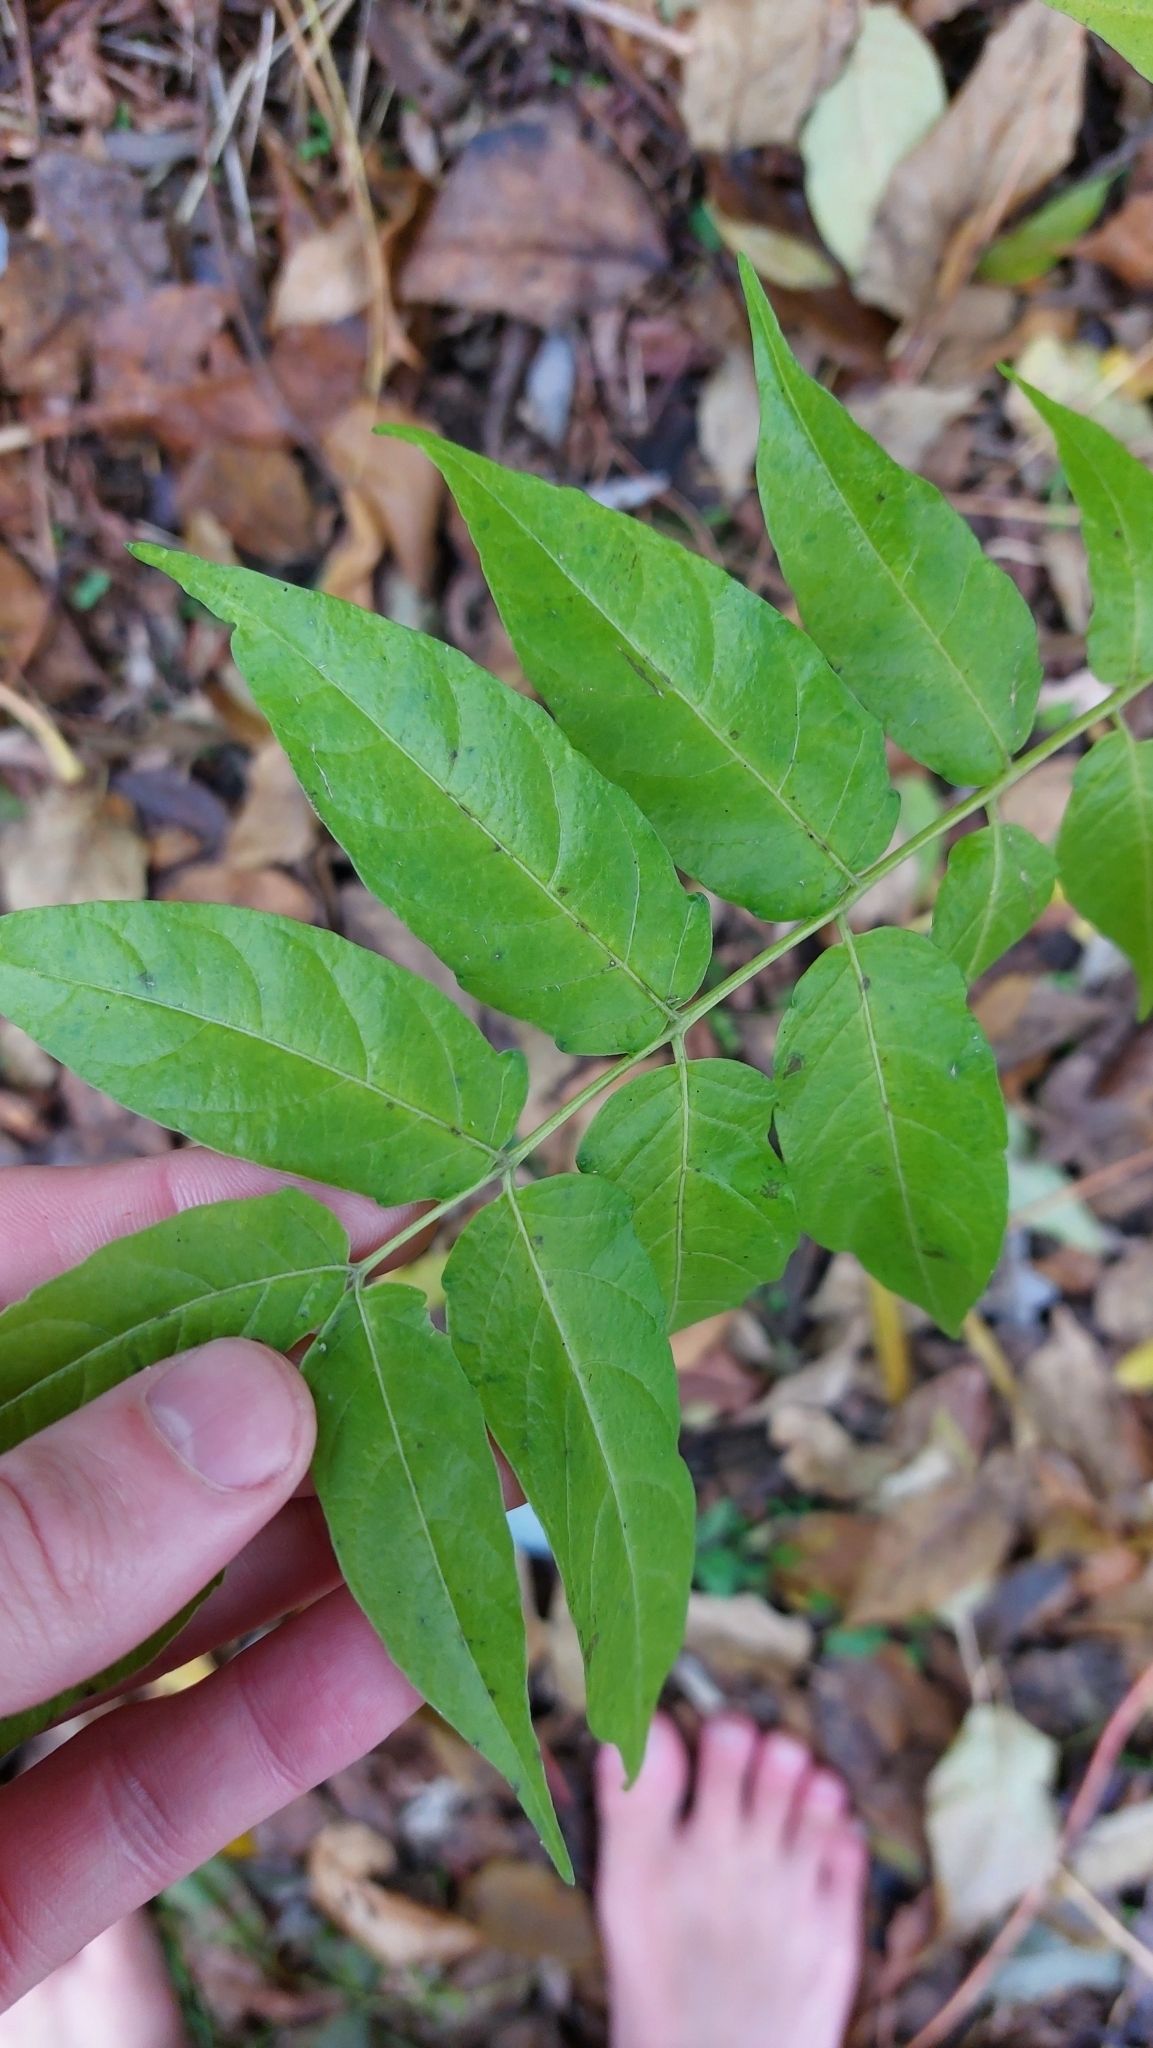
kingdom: Plantae
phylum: Tracheophyta
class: Magnoliopsida
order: Sapindales
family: Simaroubaceae
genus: Ailanthus
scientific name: Ailanthus altissima
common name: Tree-of-heaven
